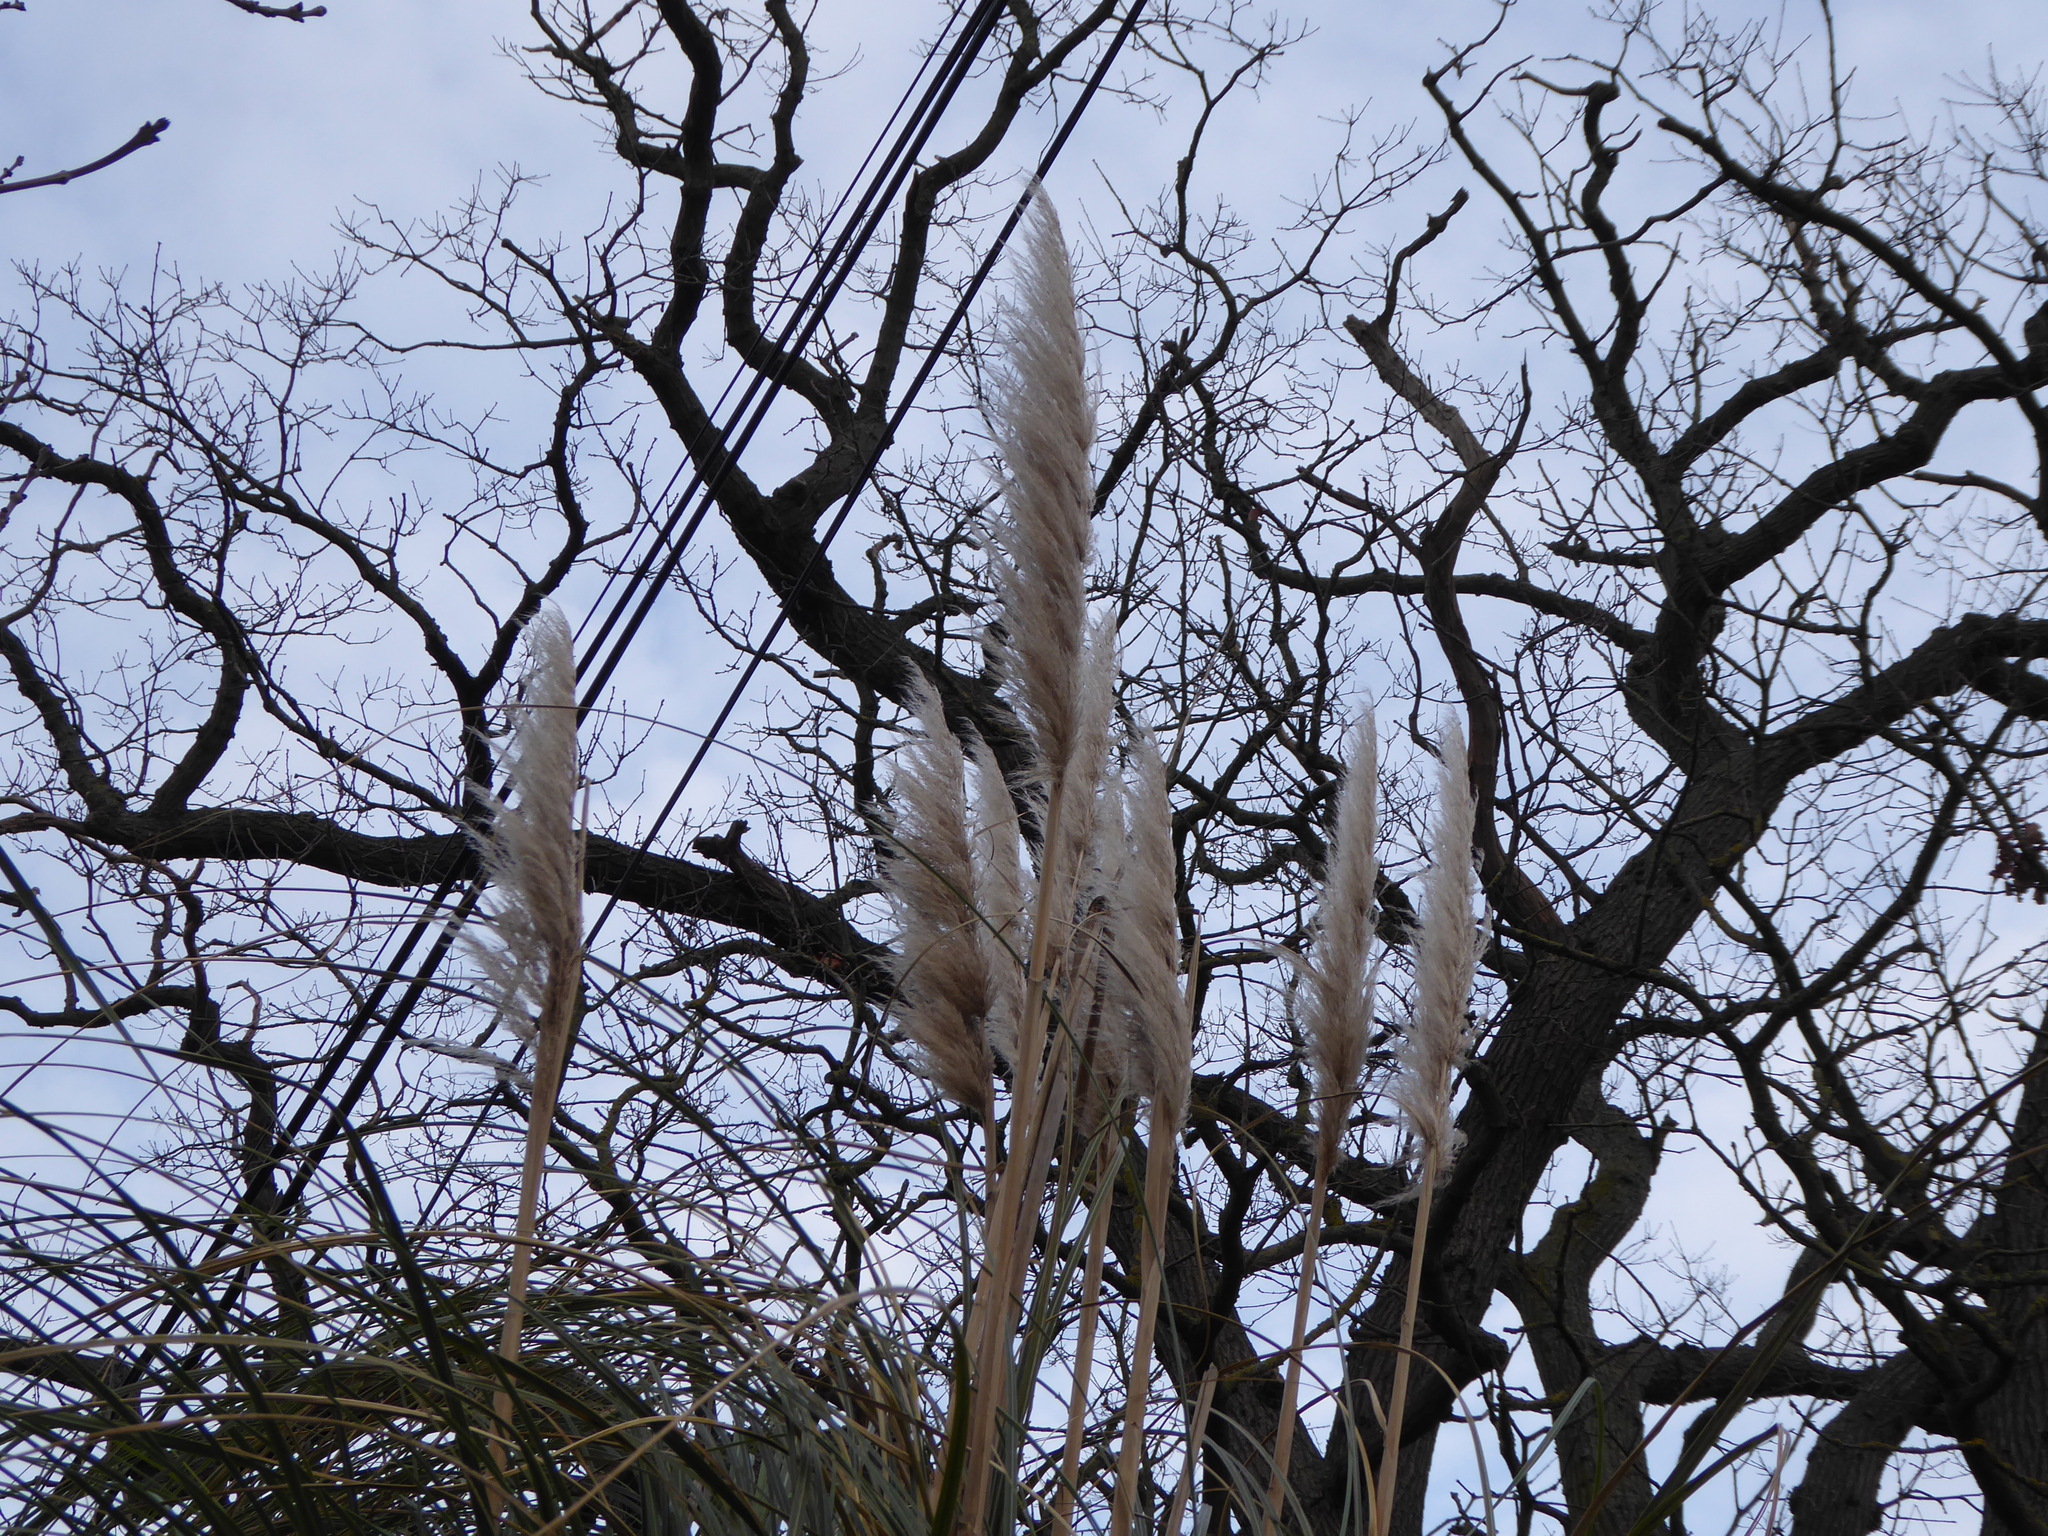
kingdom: Plantae
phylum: Tracheophyta
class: Liliopsida
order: Poales
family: Poaceae
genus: Cortaderia
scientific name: Cortaderia selloana
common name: Uruguayan pampas grass
